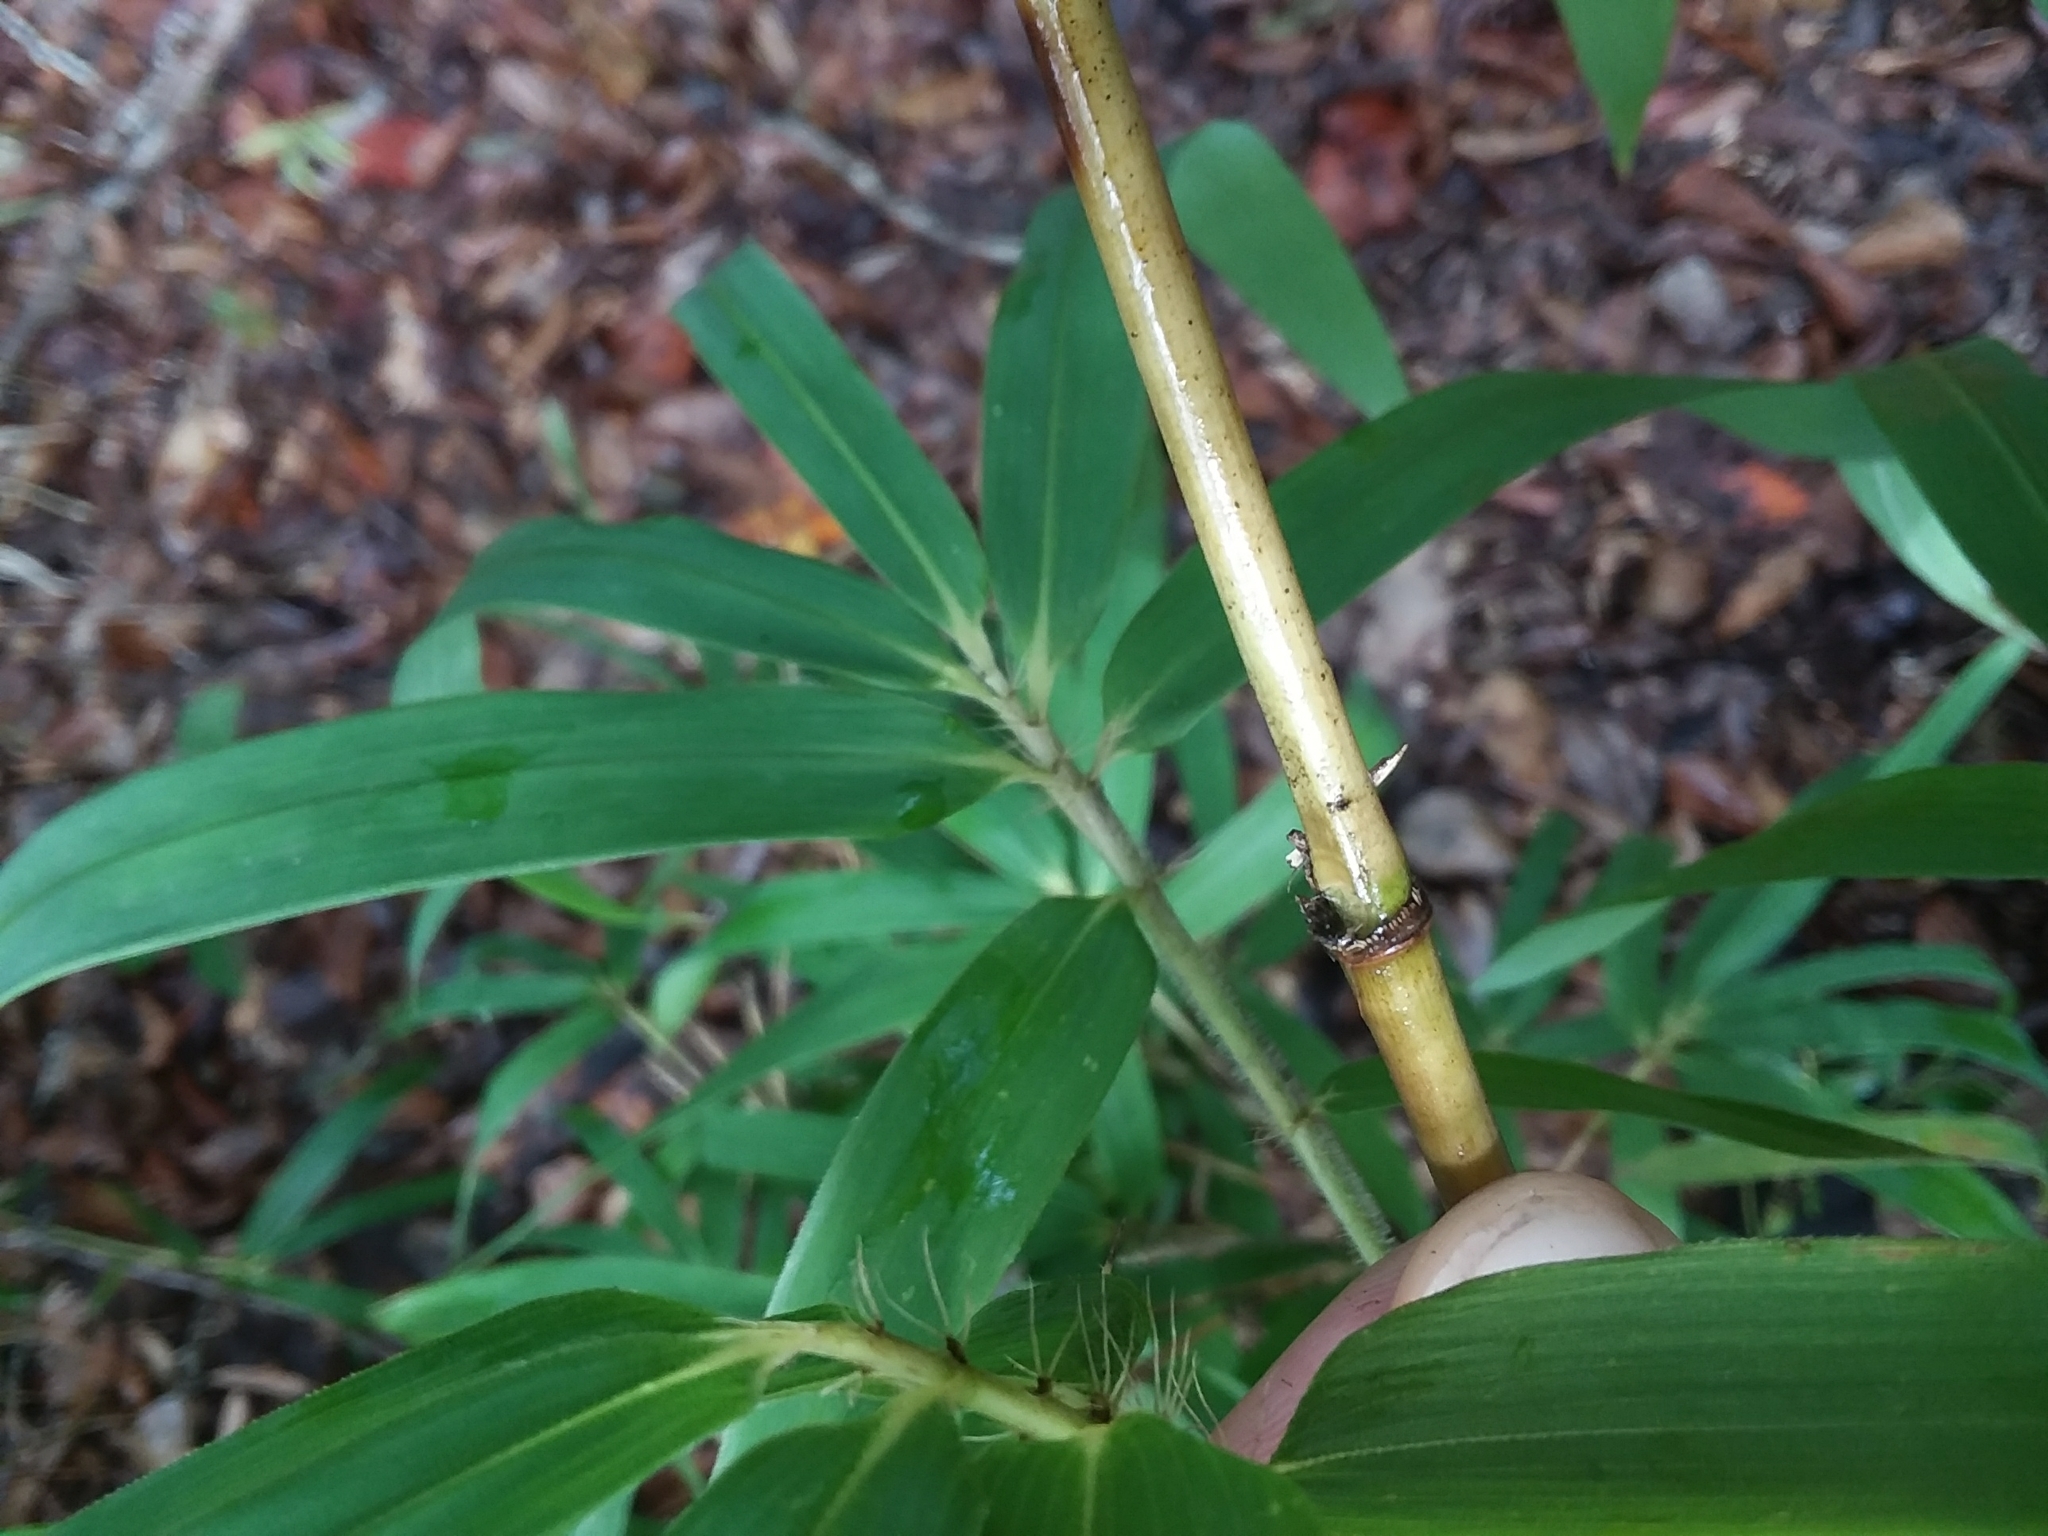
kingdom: Plantae
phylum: Tracheophyta
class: Liliopsida
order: Poales
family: Poaceae
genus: Arundinaria
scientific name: Arundinaria tecta
